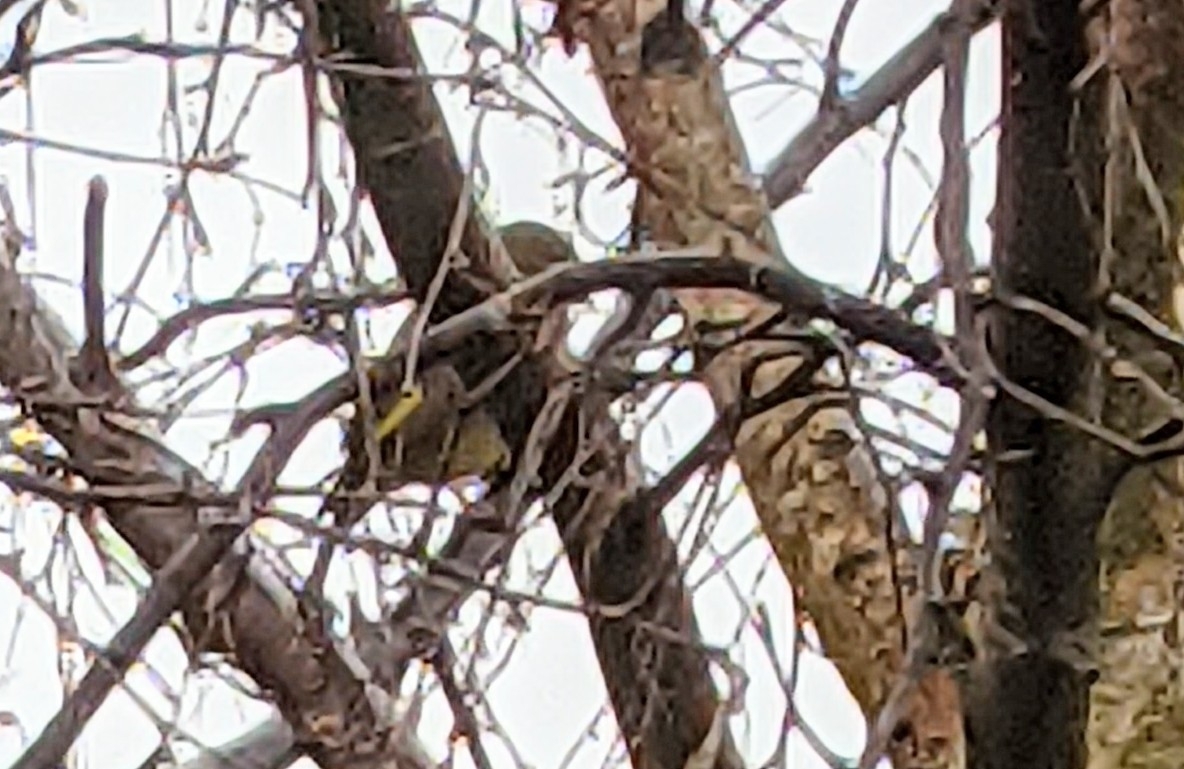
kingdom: Plantae
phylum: Tracheophyta
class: Liliopsida
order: Poales
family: Poaceae
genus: Chloris
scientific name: Chloris chloris
